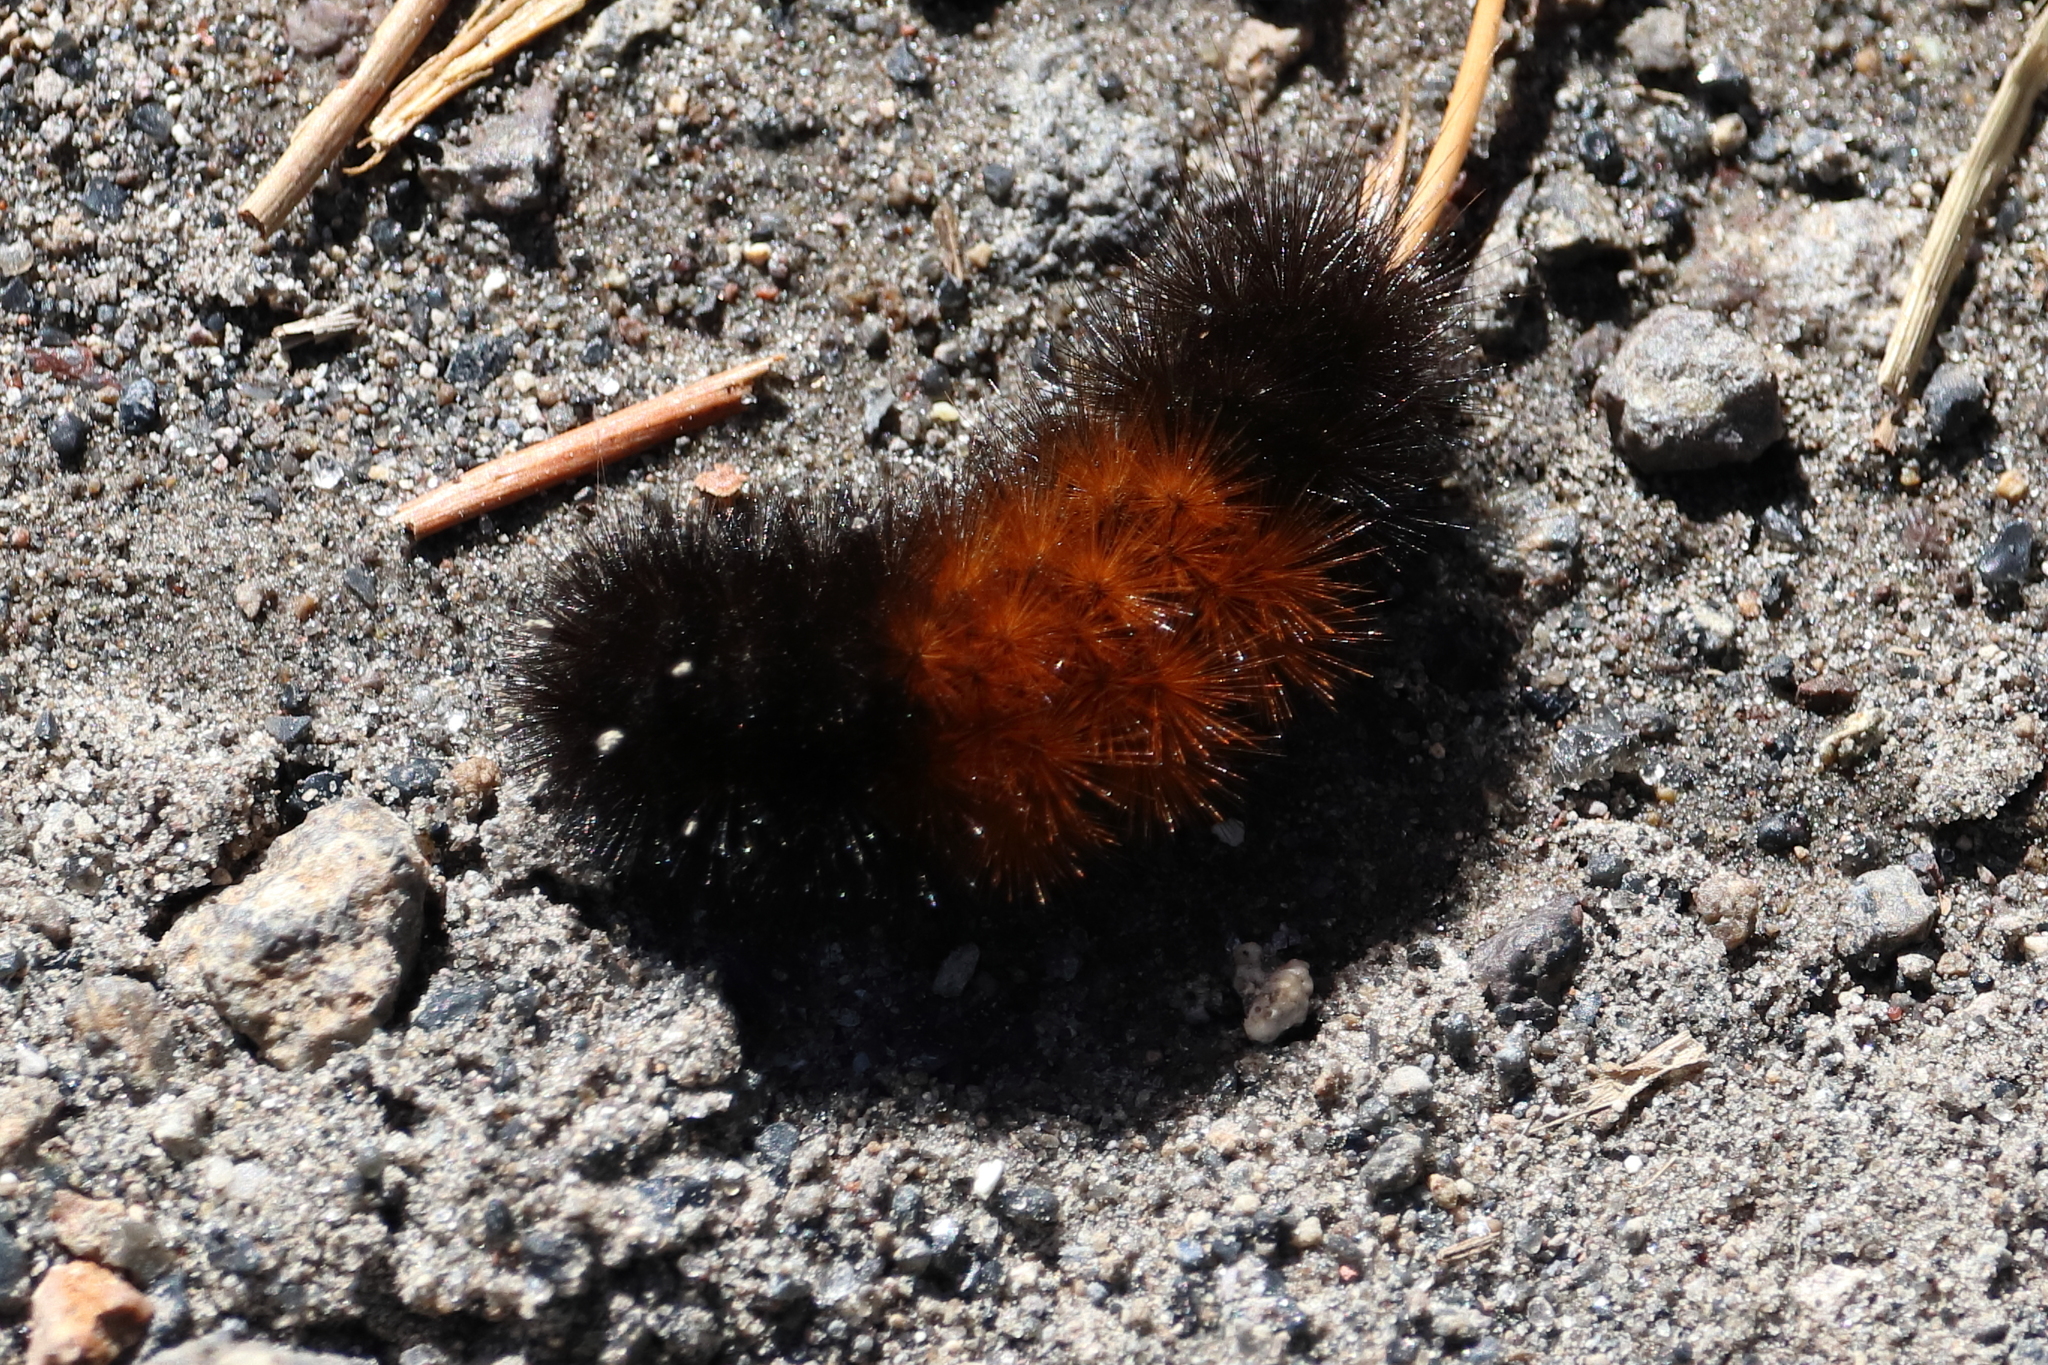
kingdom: Animalia
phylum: Arthropoda
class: Insecta
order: Lepidoptera
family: Erebidae
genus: Pyrrharctia
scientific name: Pyrrharctia isabella
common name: Isabella tiger moth
